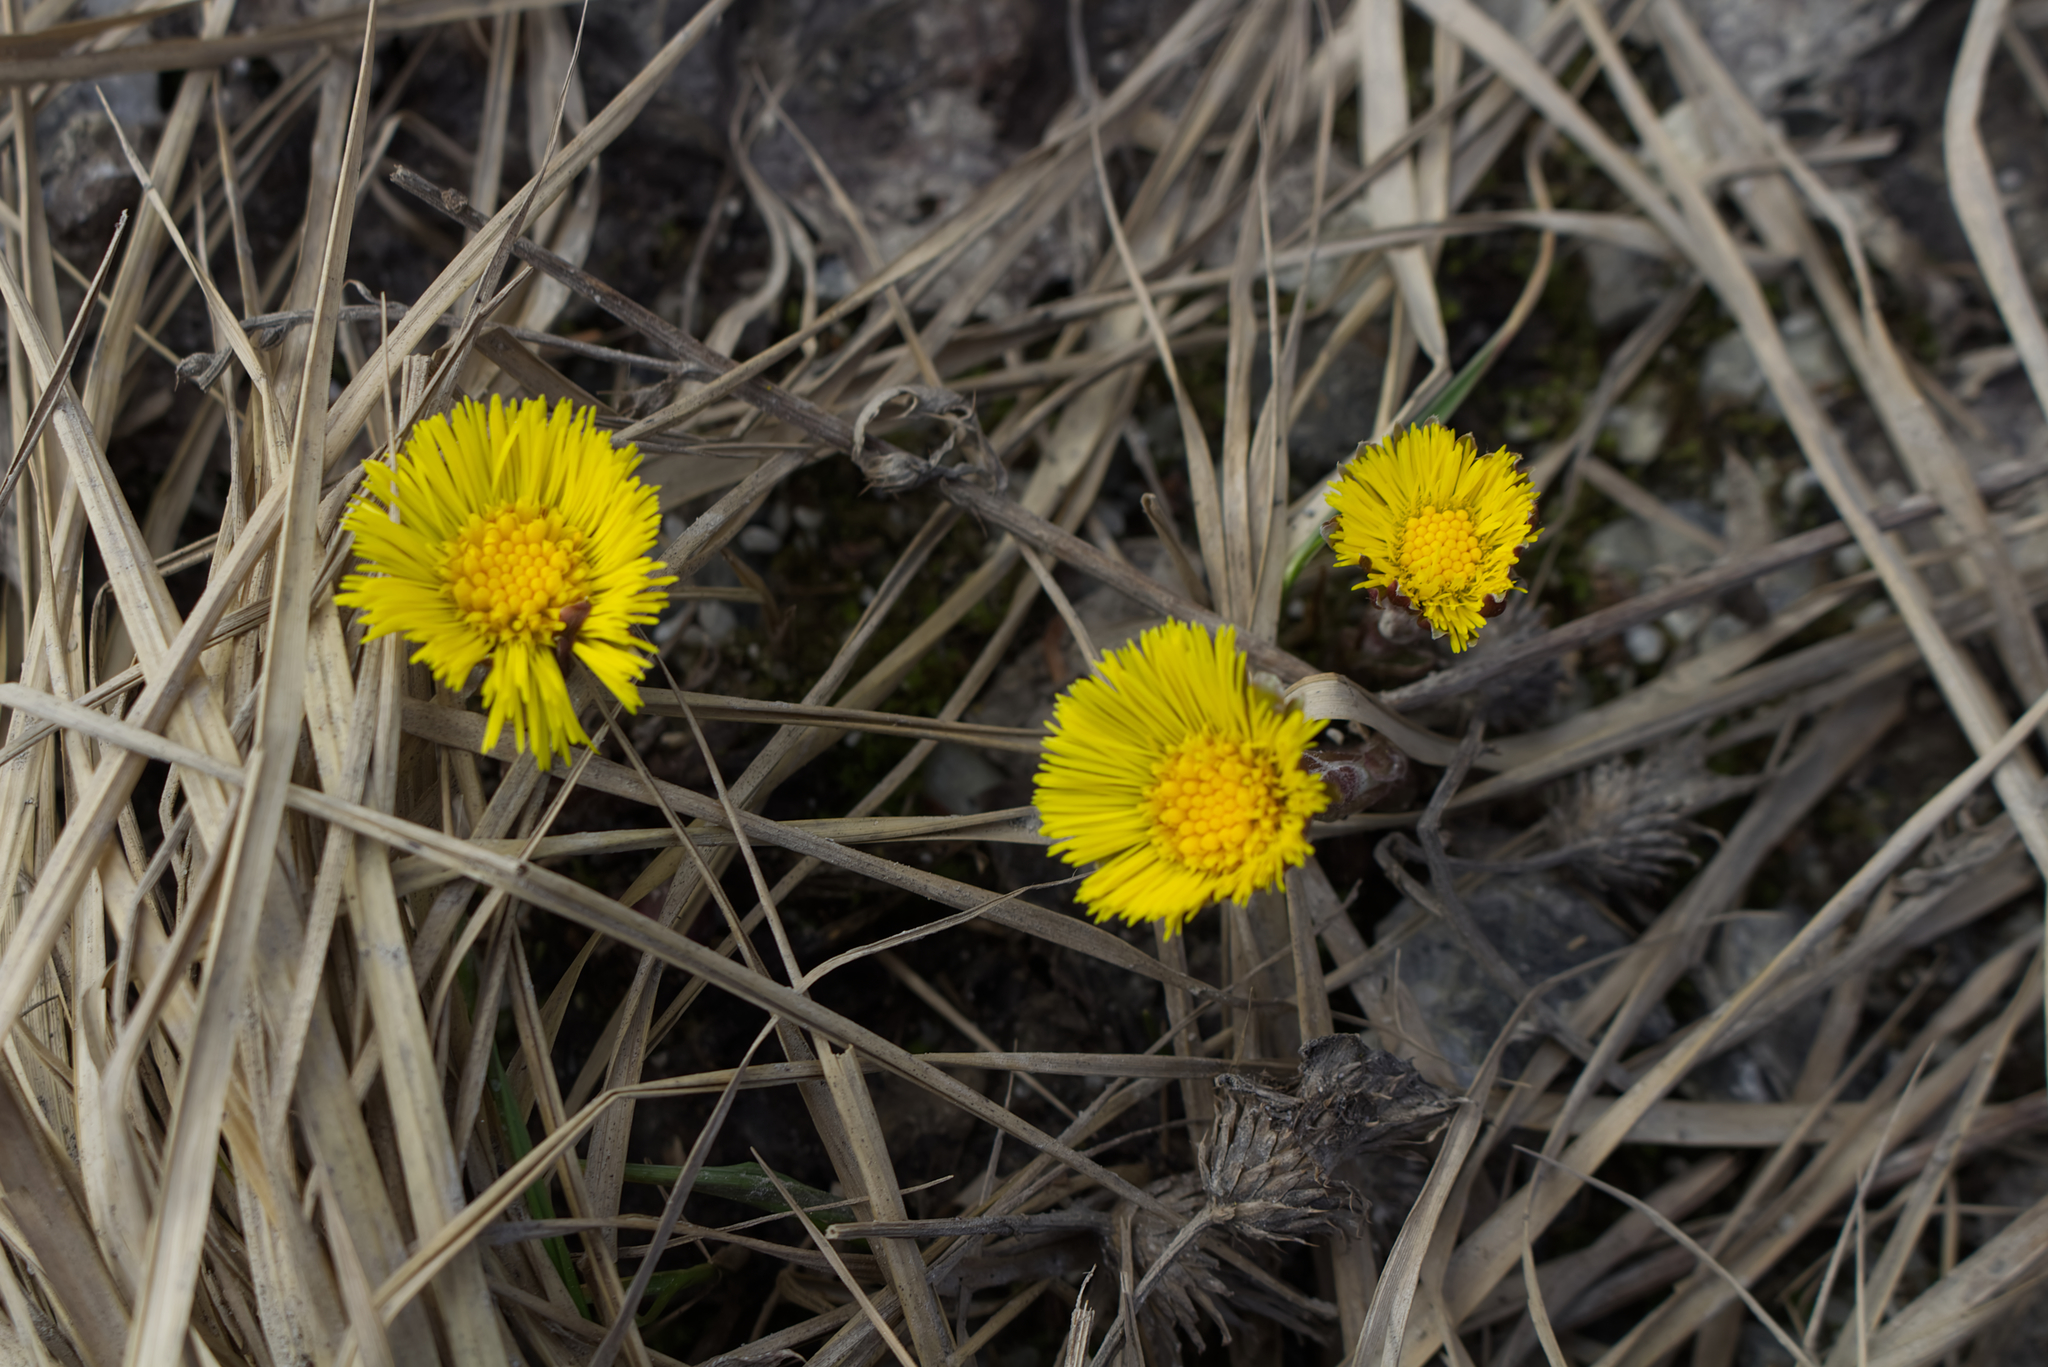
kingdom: Plantae
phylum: Tracheophyta
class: Magnoliopsida
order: Asterales
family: Asteraceae
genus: Tussilago
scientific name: Tussilago farfara
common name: Coltsfoot
